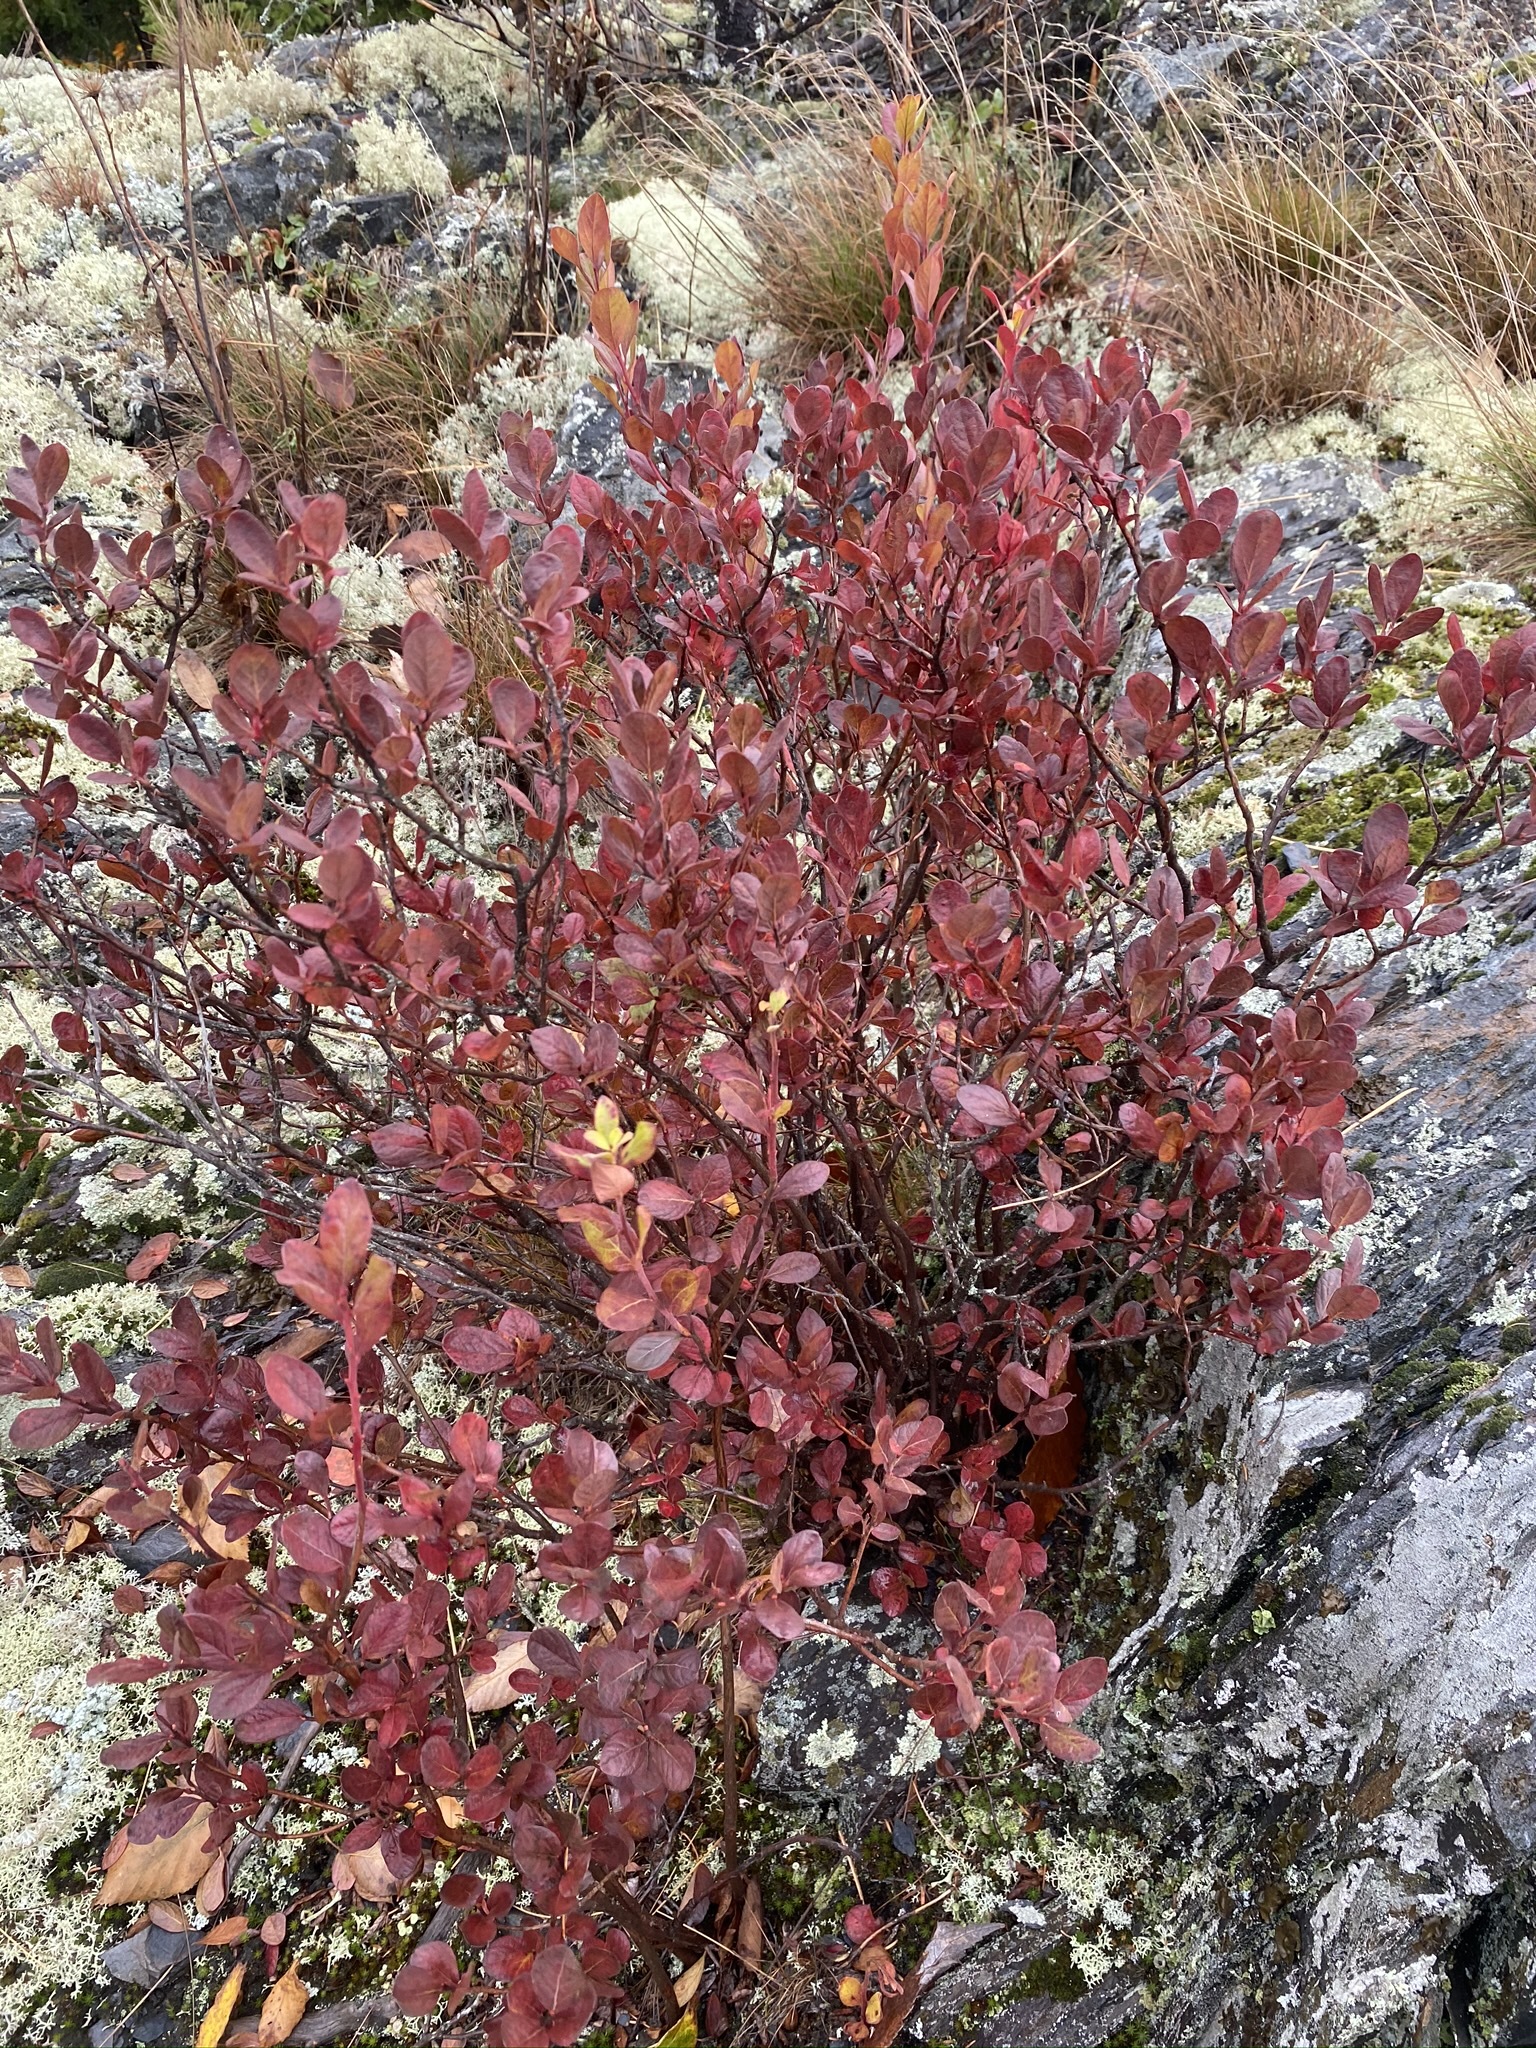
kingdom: Plantae
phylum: Tracheophyta
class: Magnoliopsida
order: Ericales
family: Ericaceae
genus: Vaccinium
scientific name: Vaccinium uliginosum
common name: Bog bilberry
